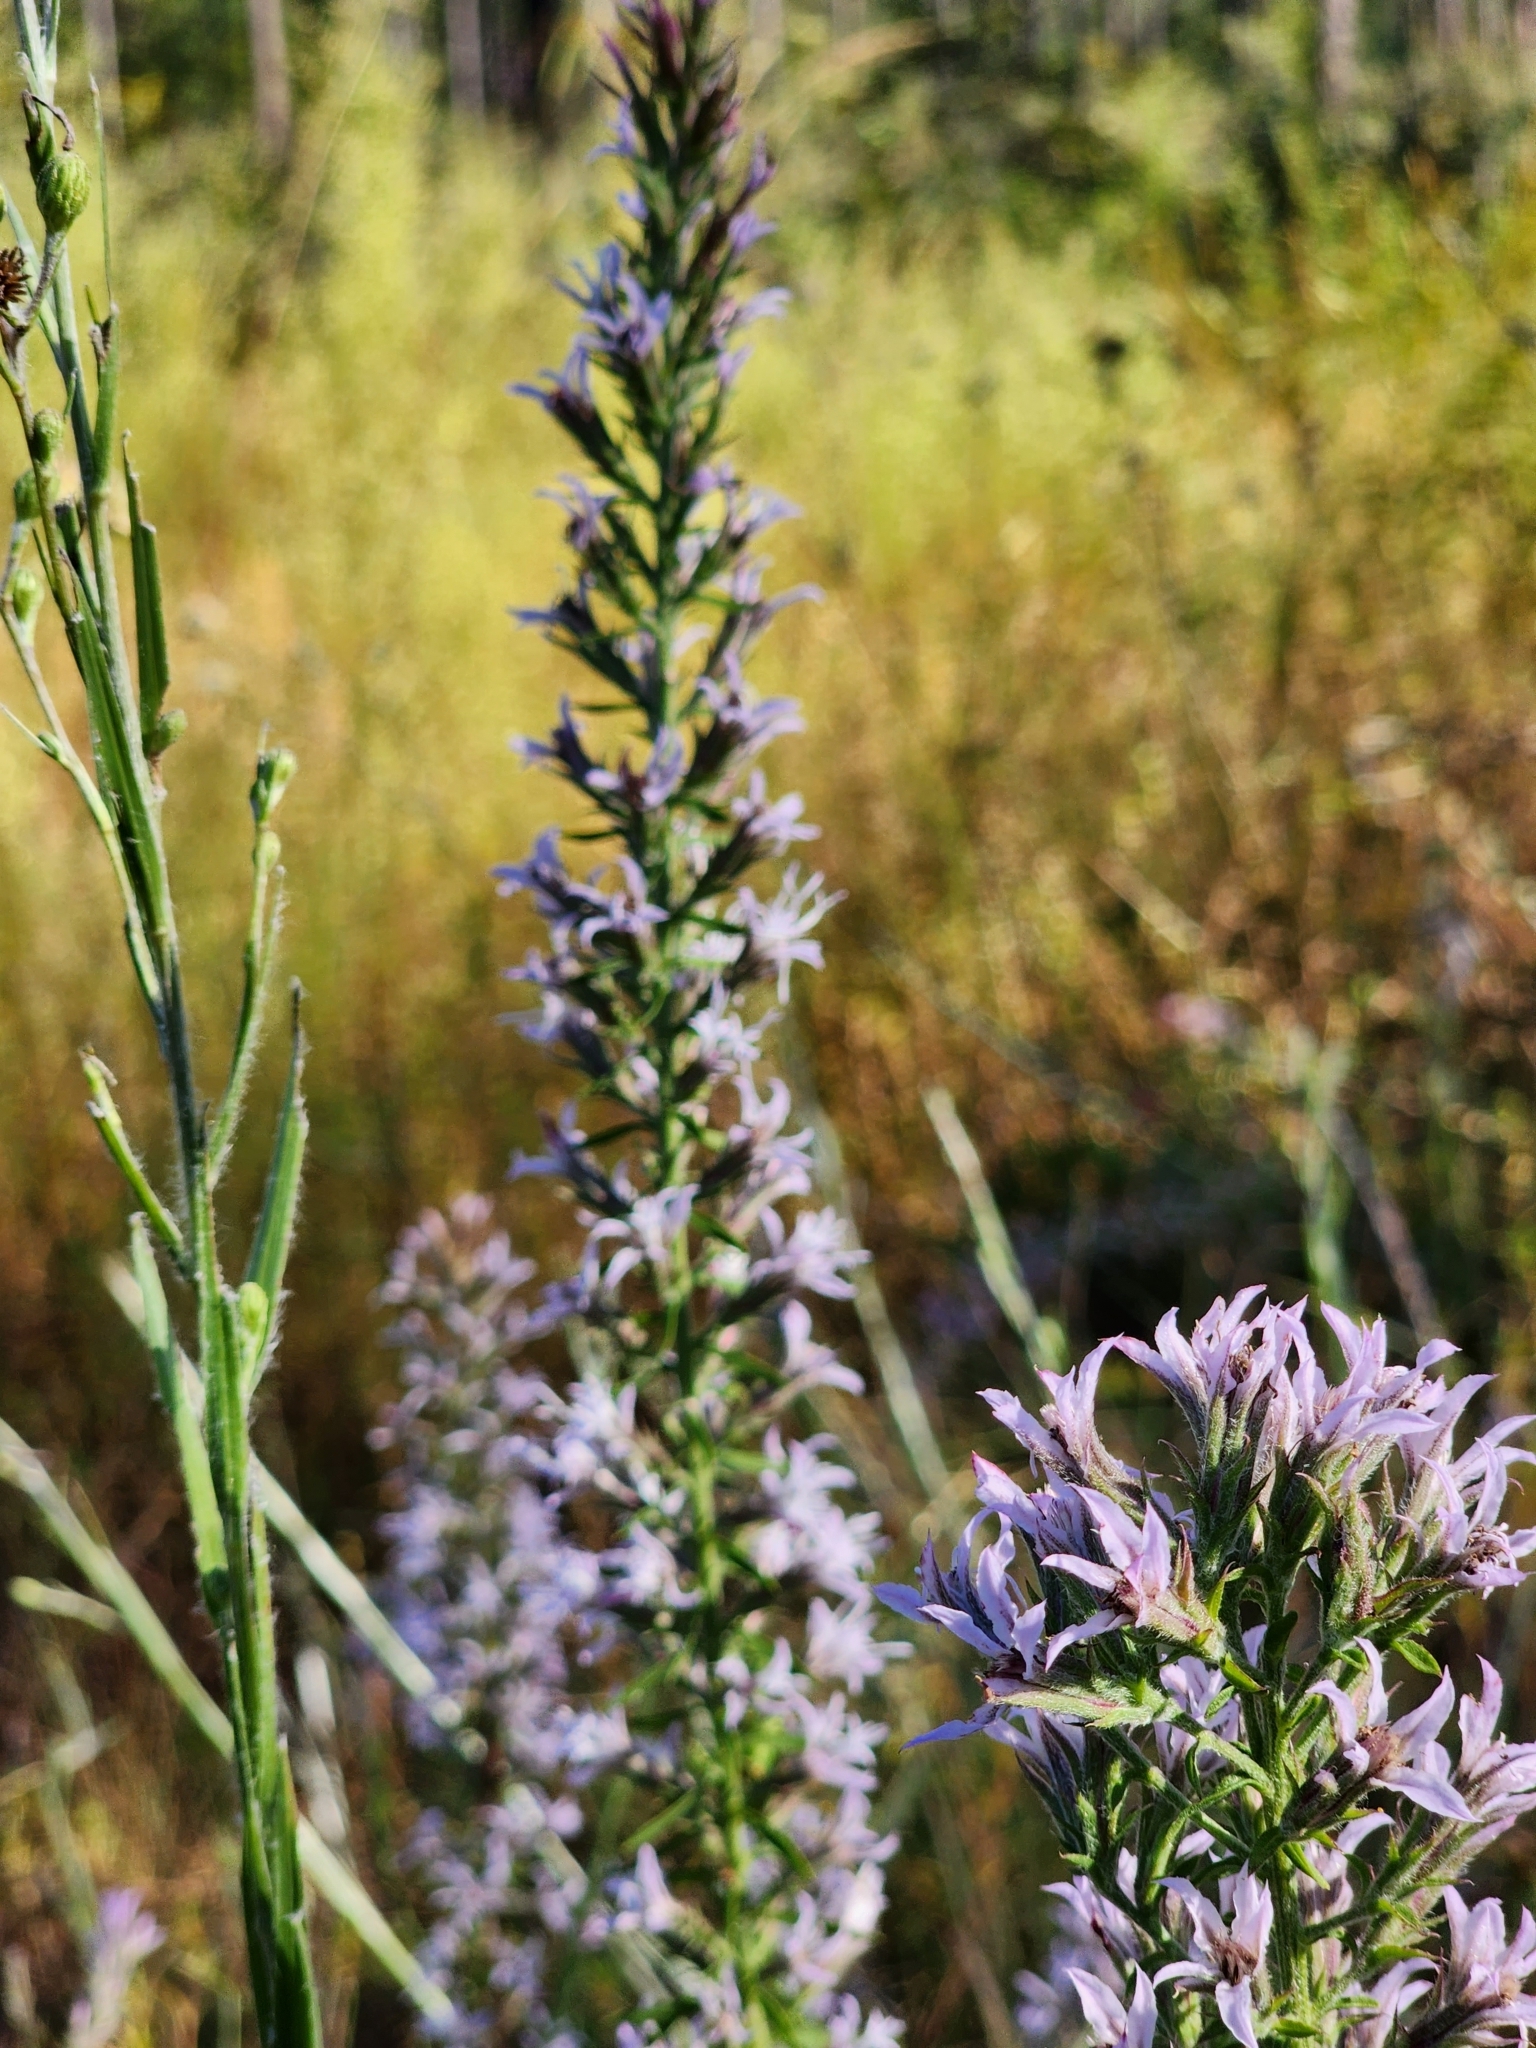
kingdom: Plantae
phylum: Tracheophyta
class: Magnoliopsida
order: Asterales
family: Asteraceae
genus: Liatris
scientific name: Liatris elegans
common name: Pinkscale gayfeather
